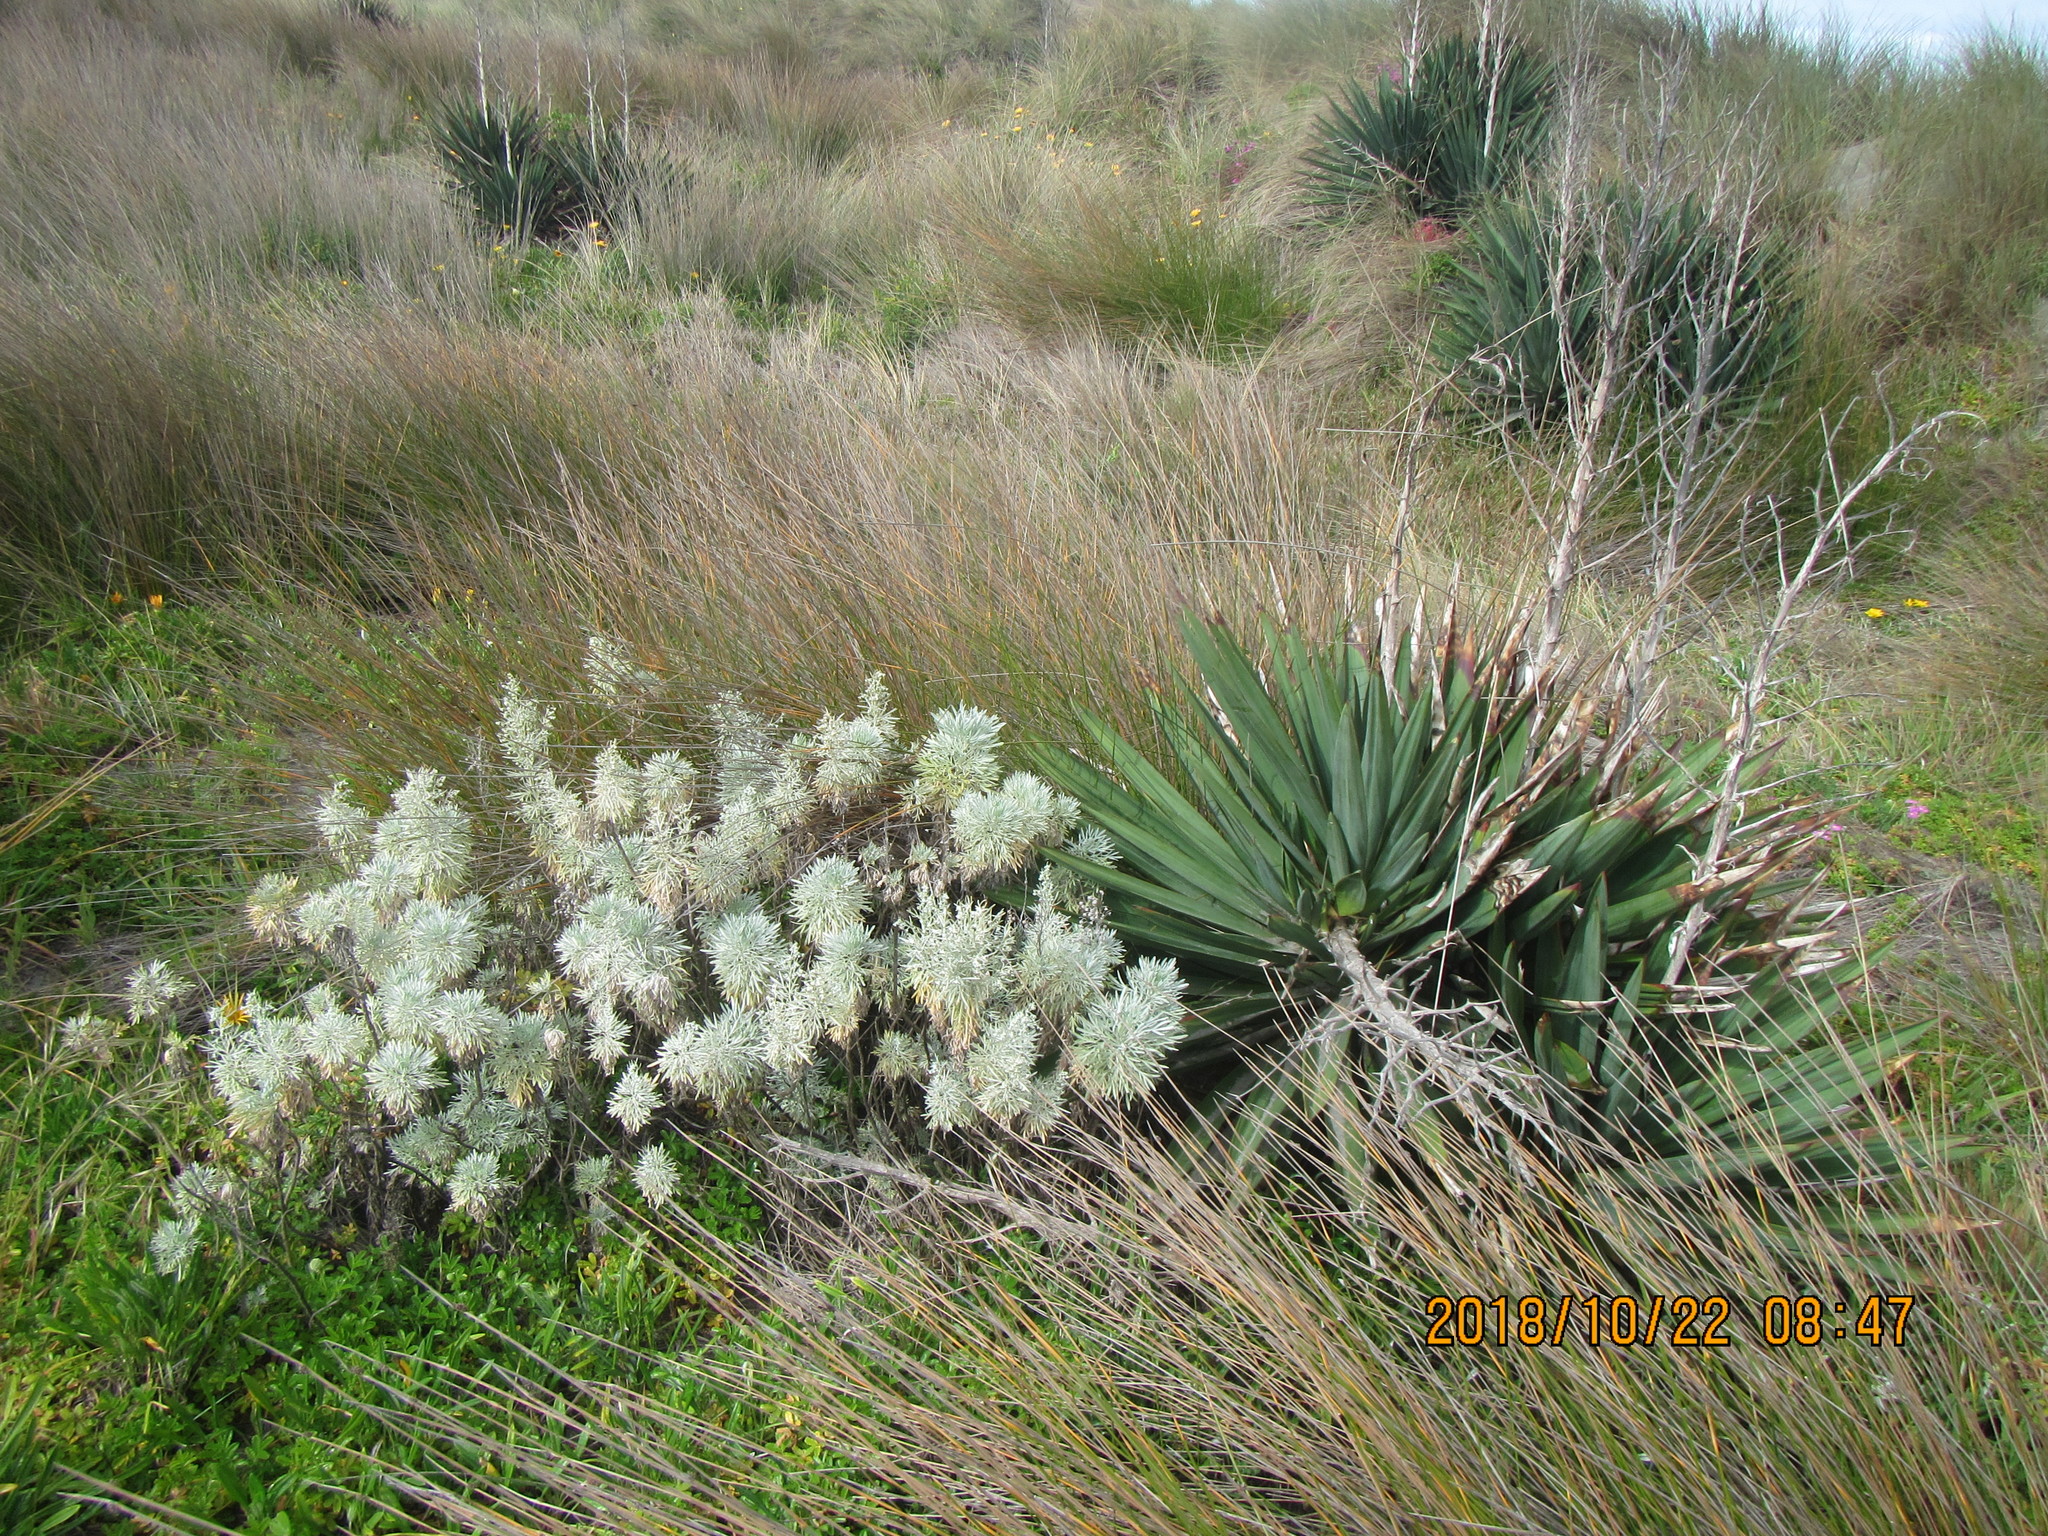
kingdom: Plantae
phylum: Tracheophyta
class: Magnoliopsida
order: Asterales
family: Asteraceae
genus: Artemisia
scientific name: Artemisia arborescens
